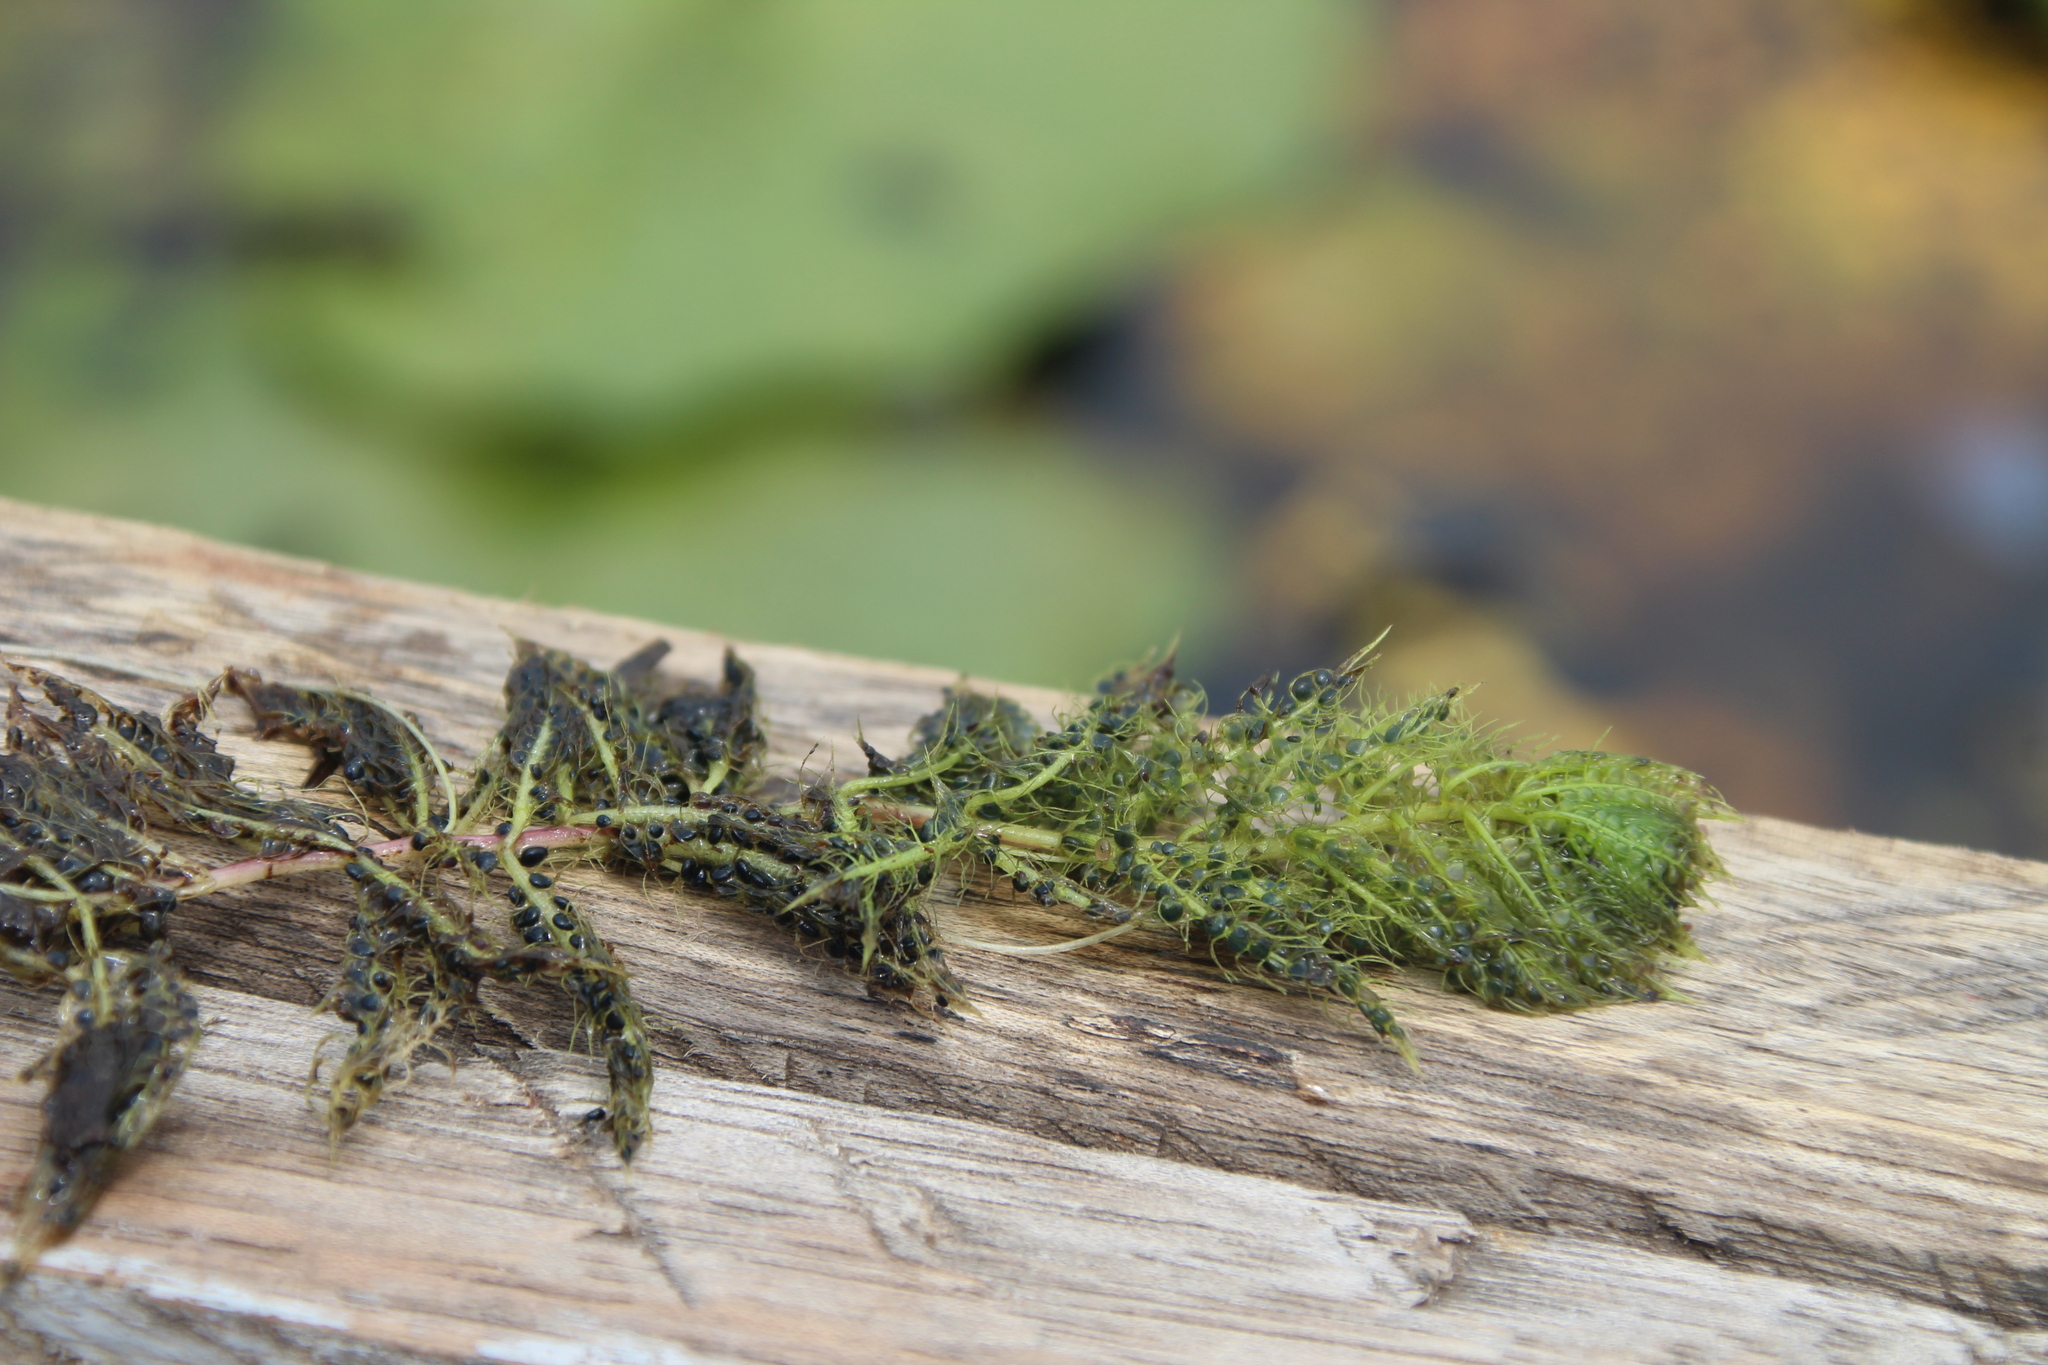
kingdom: Plantae
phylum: Tracheophyta
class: Magnoliopsida
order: Lamiales
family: Lentibulariaceae
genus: Utricularia
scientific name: Utricularia stellaris
